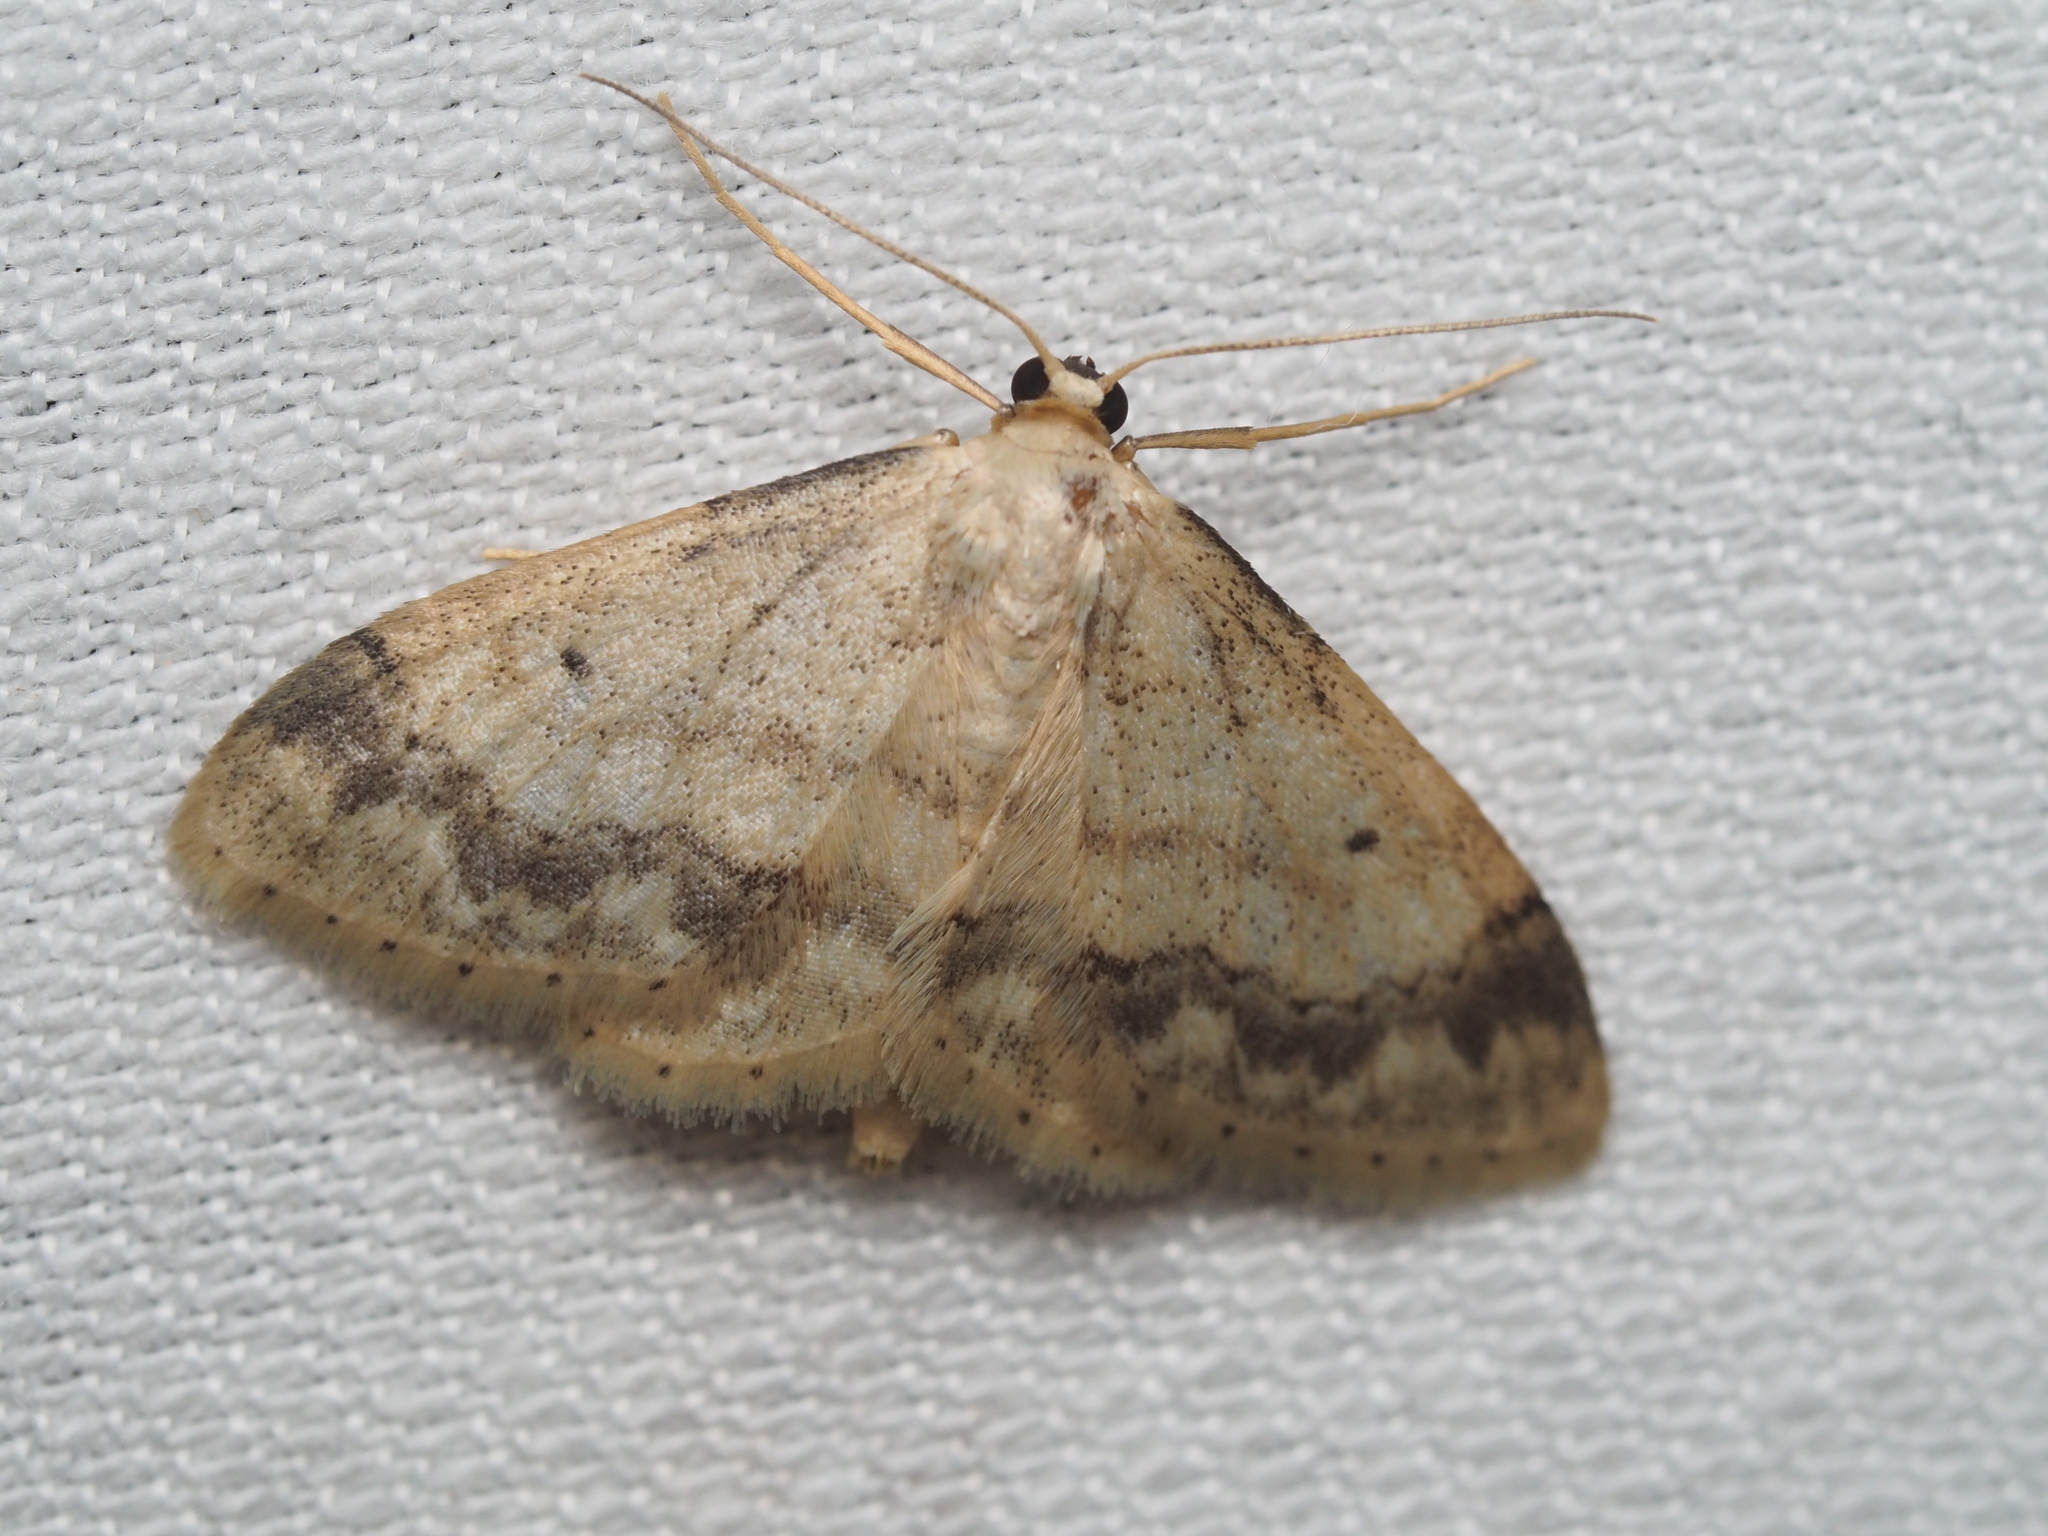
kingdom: Animalia
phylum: Arthropoda
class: Insecta
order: Lepidoptera
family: Geometridae
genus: Idaea
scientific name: Idaea biselata
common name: Small fan-footed wave
